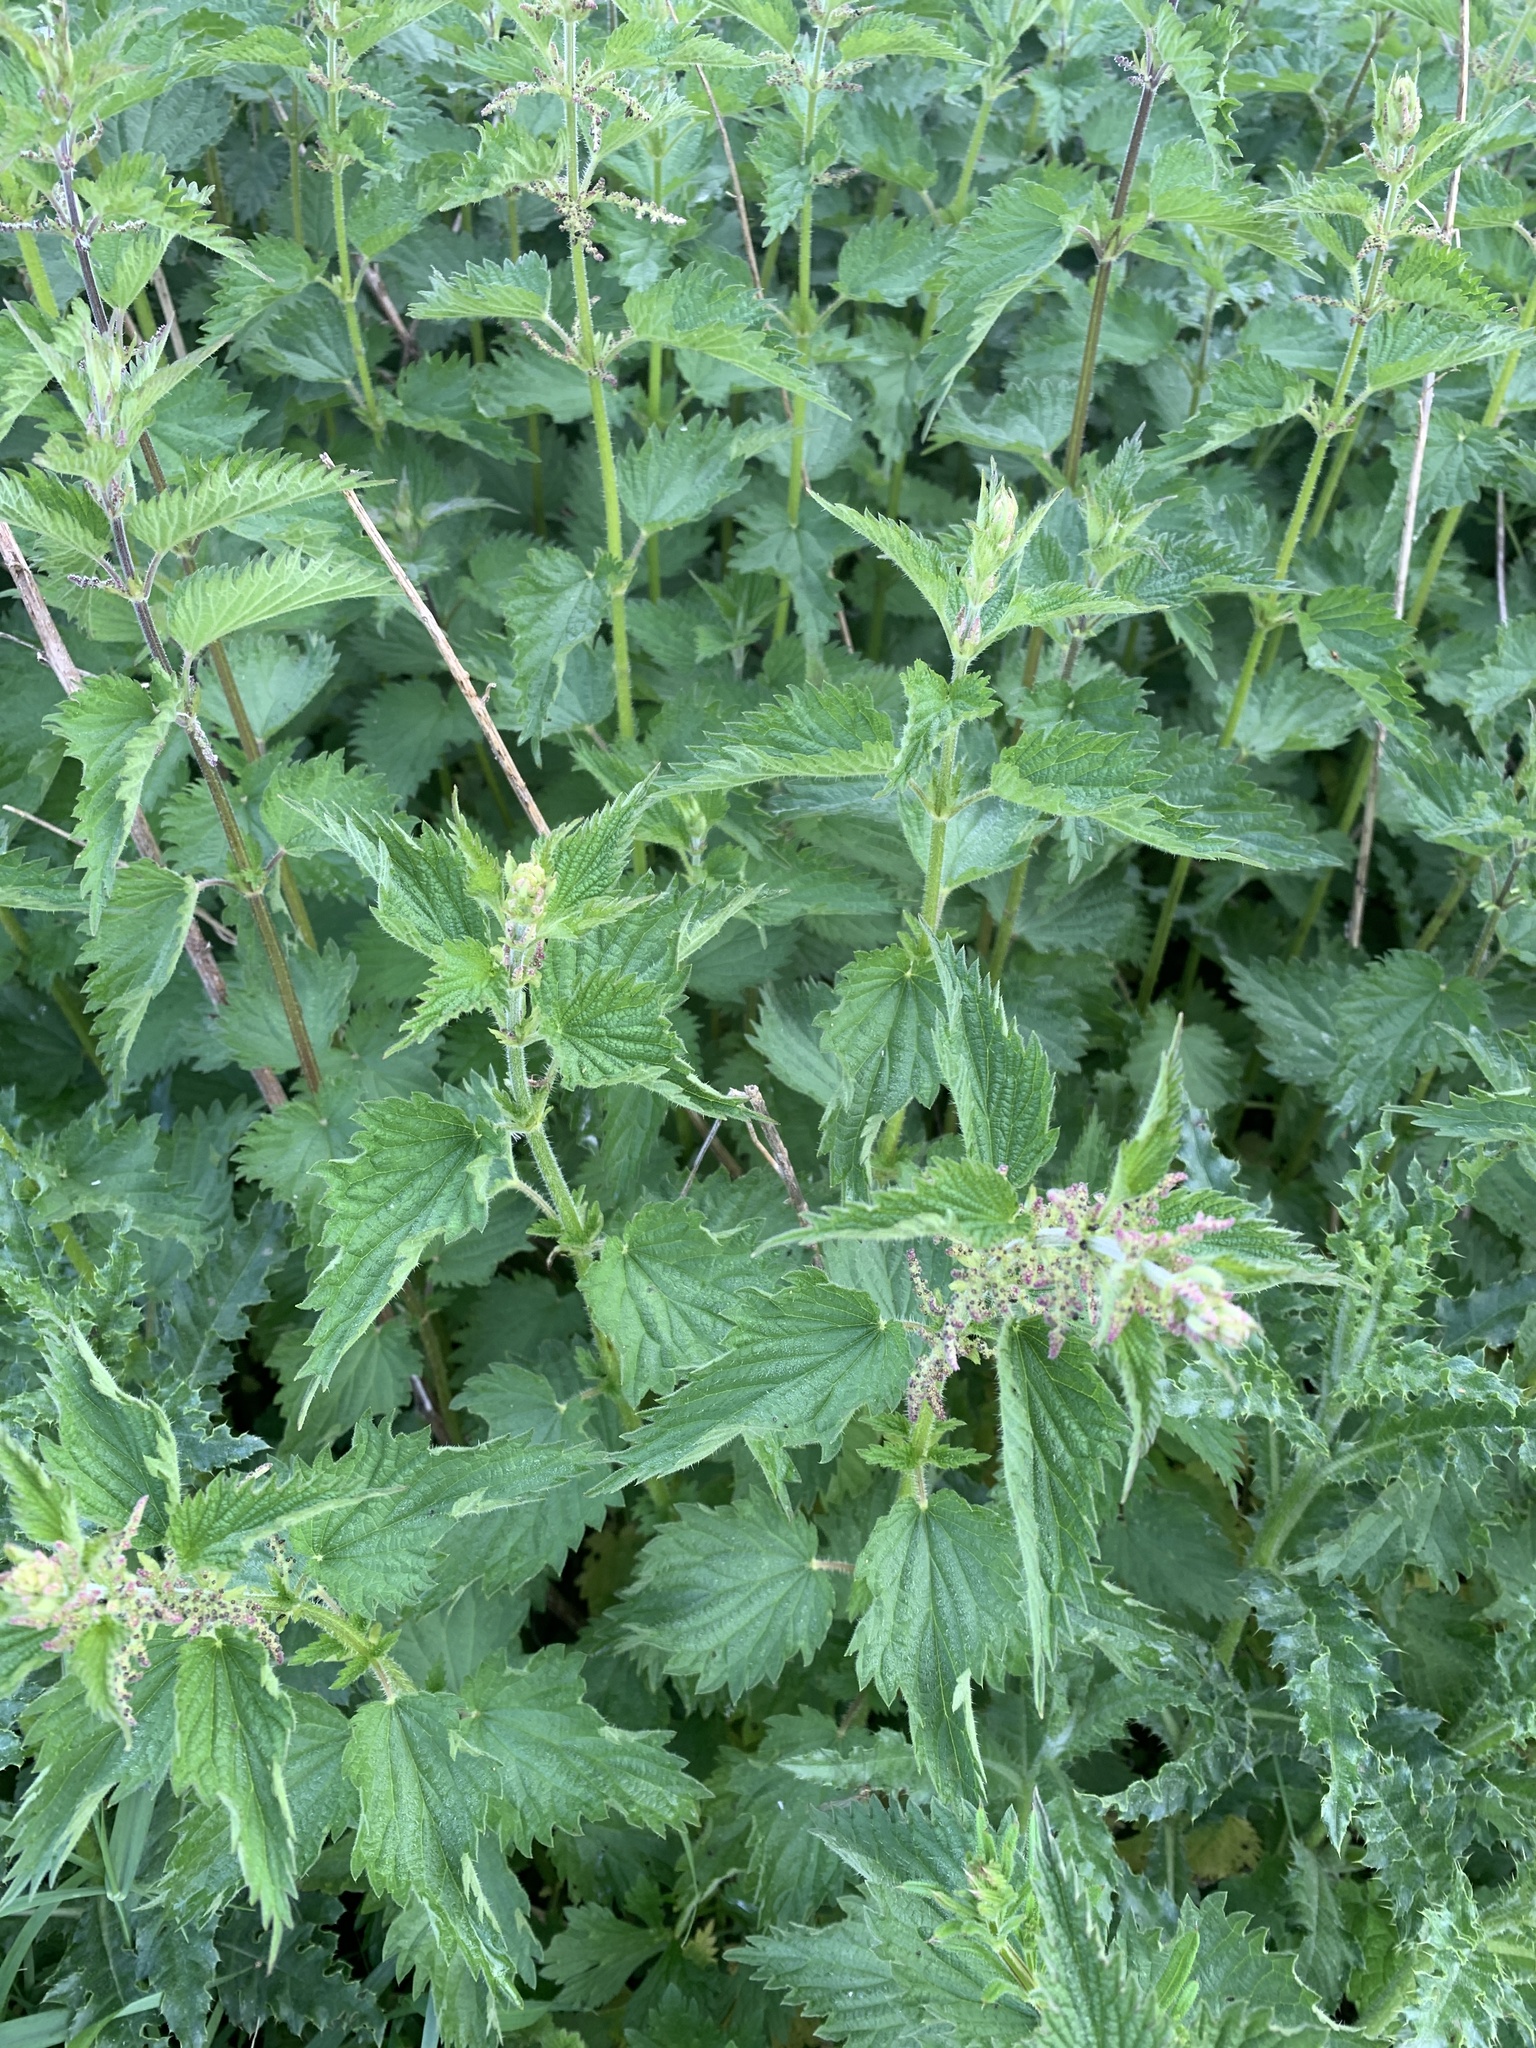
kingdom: Plantae
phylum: Tracheophyta
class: Magnoliopsida
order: Rosales
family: Urticaceae
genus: Urtica
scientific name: Urtica dioica
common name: Common nettle
